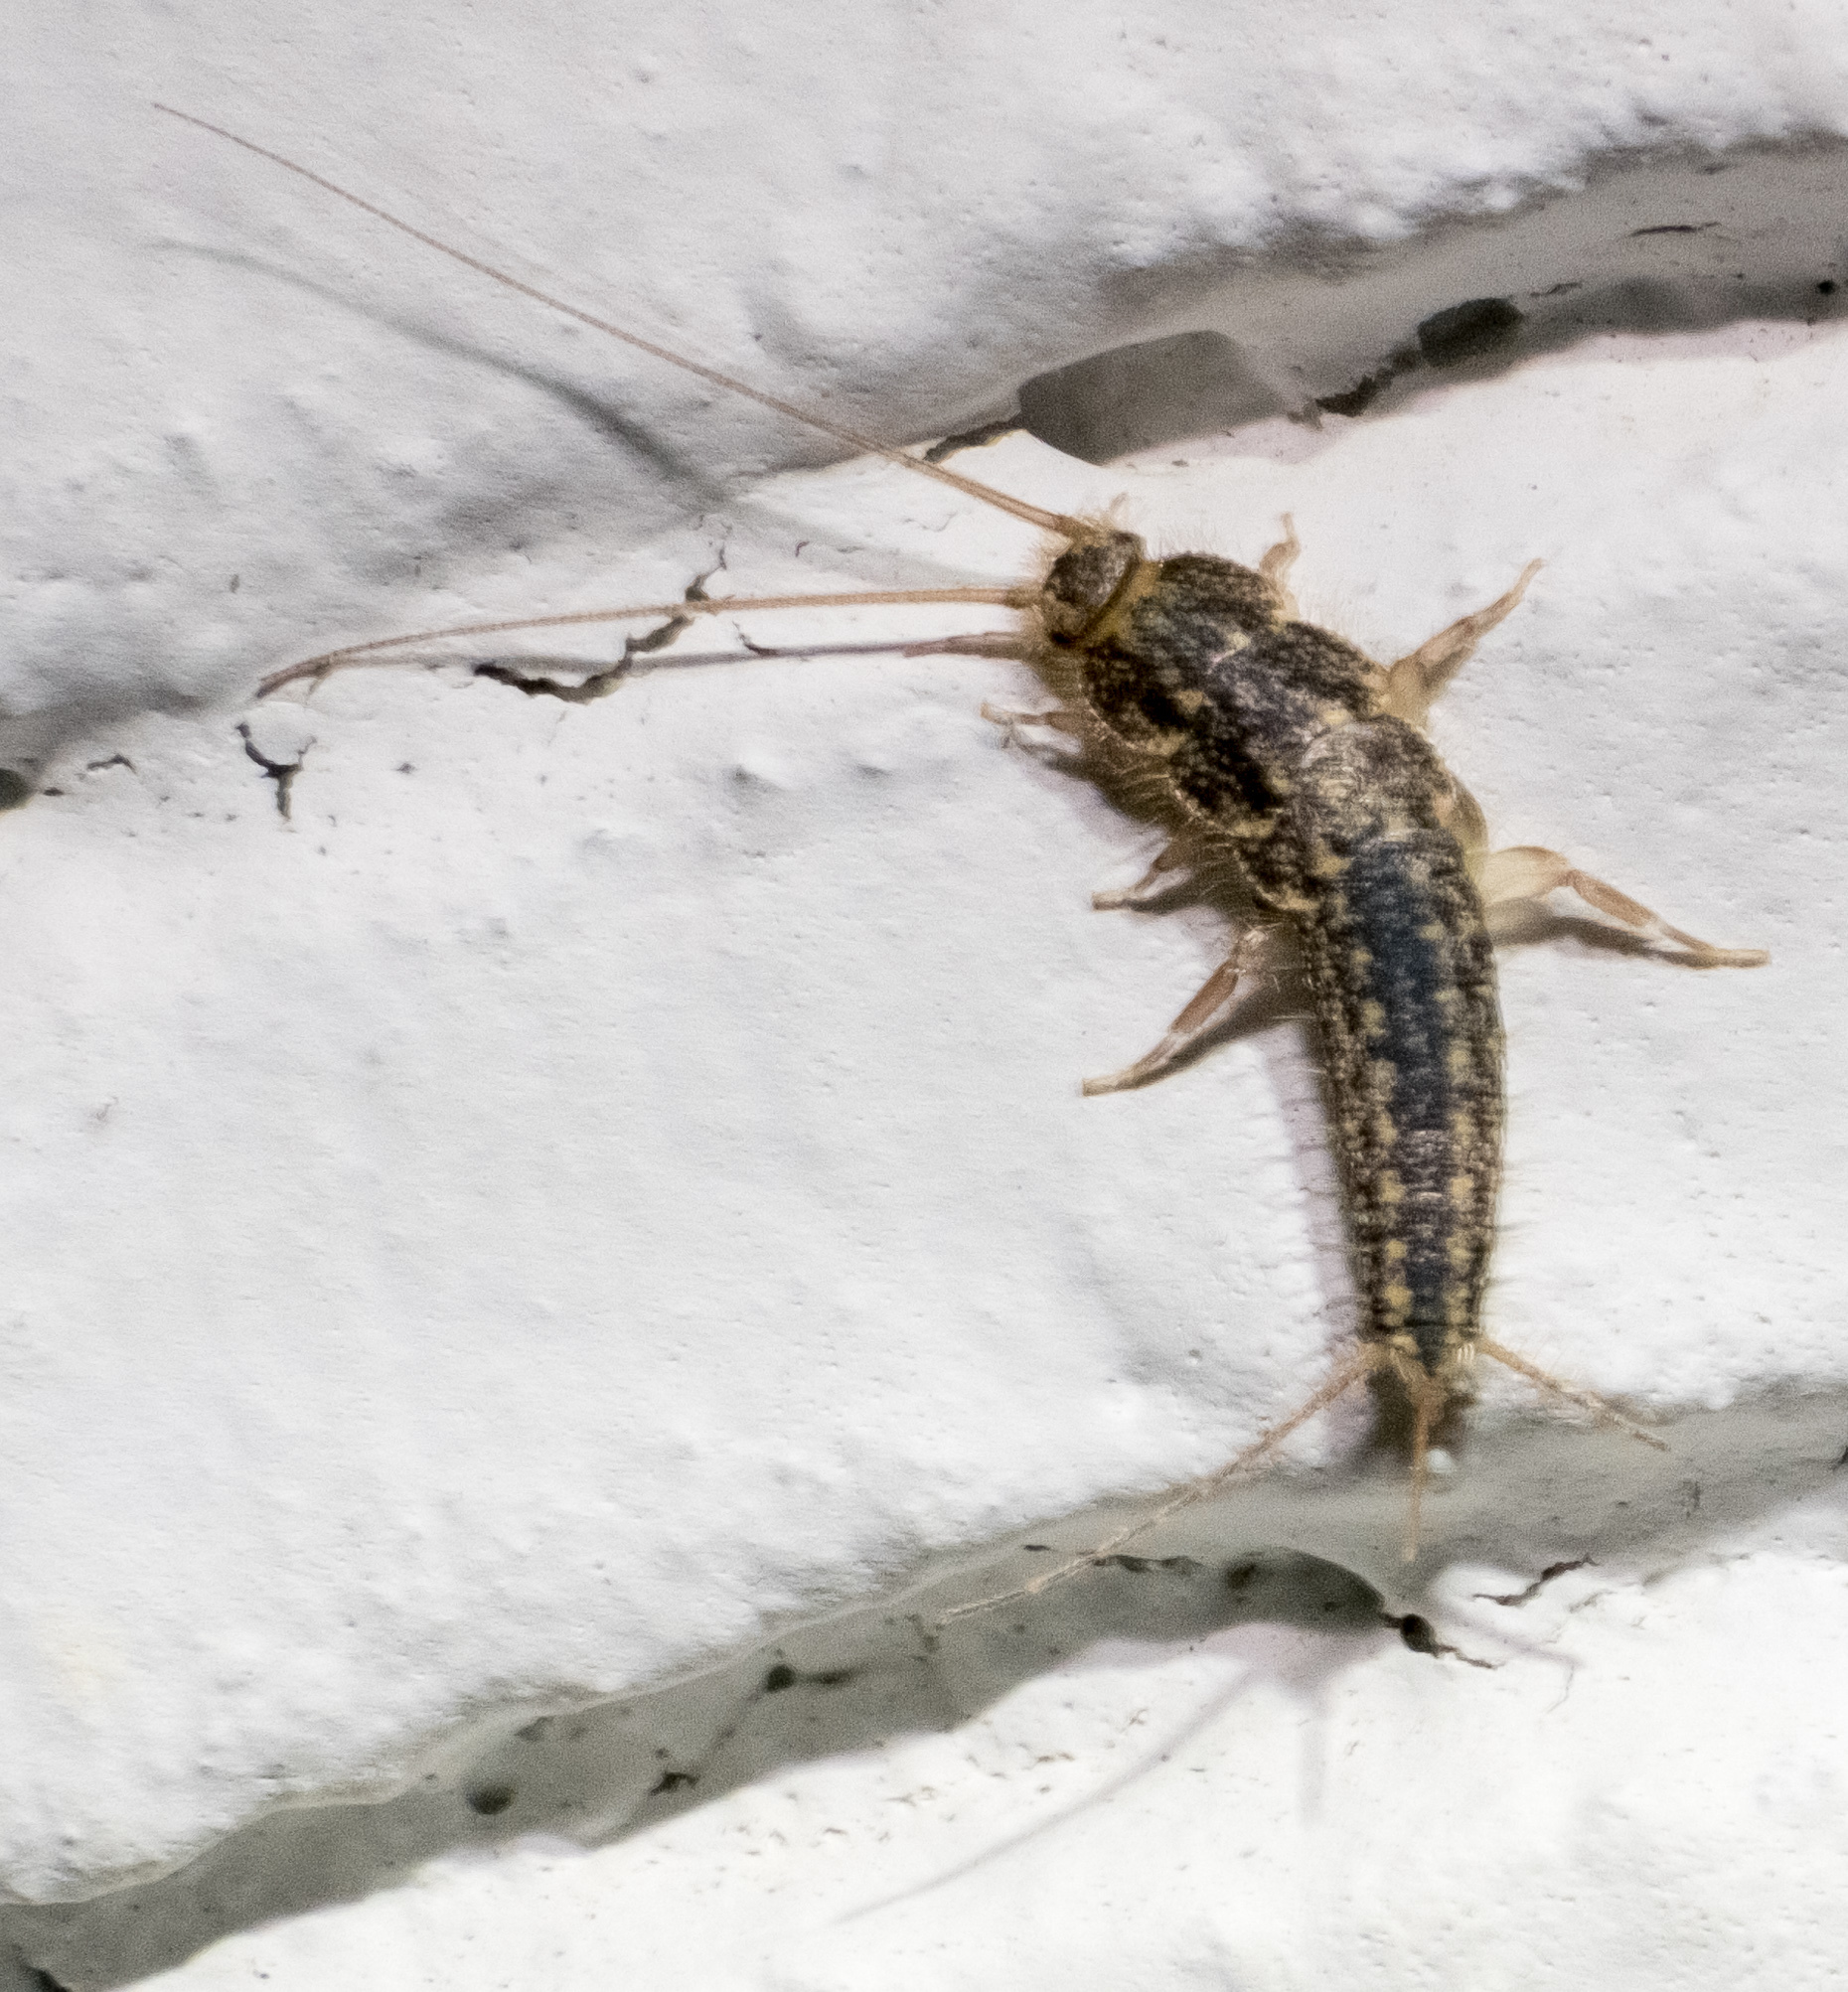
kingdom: Animalia
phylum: Arthropoda
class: Insecta
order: Zygentoma
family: Lepismatidae
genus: Ctenolepisma
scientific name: Ctenolepisma lineata
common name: Four-lined silverfish
